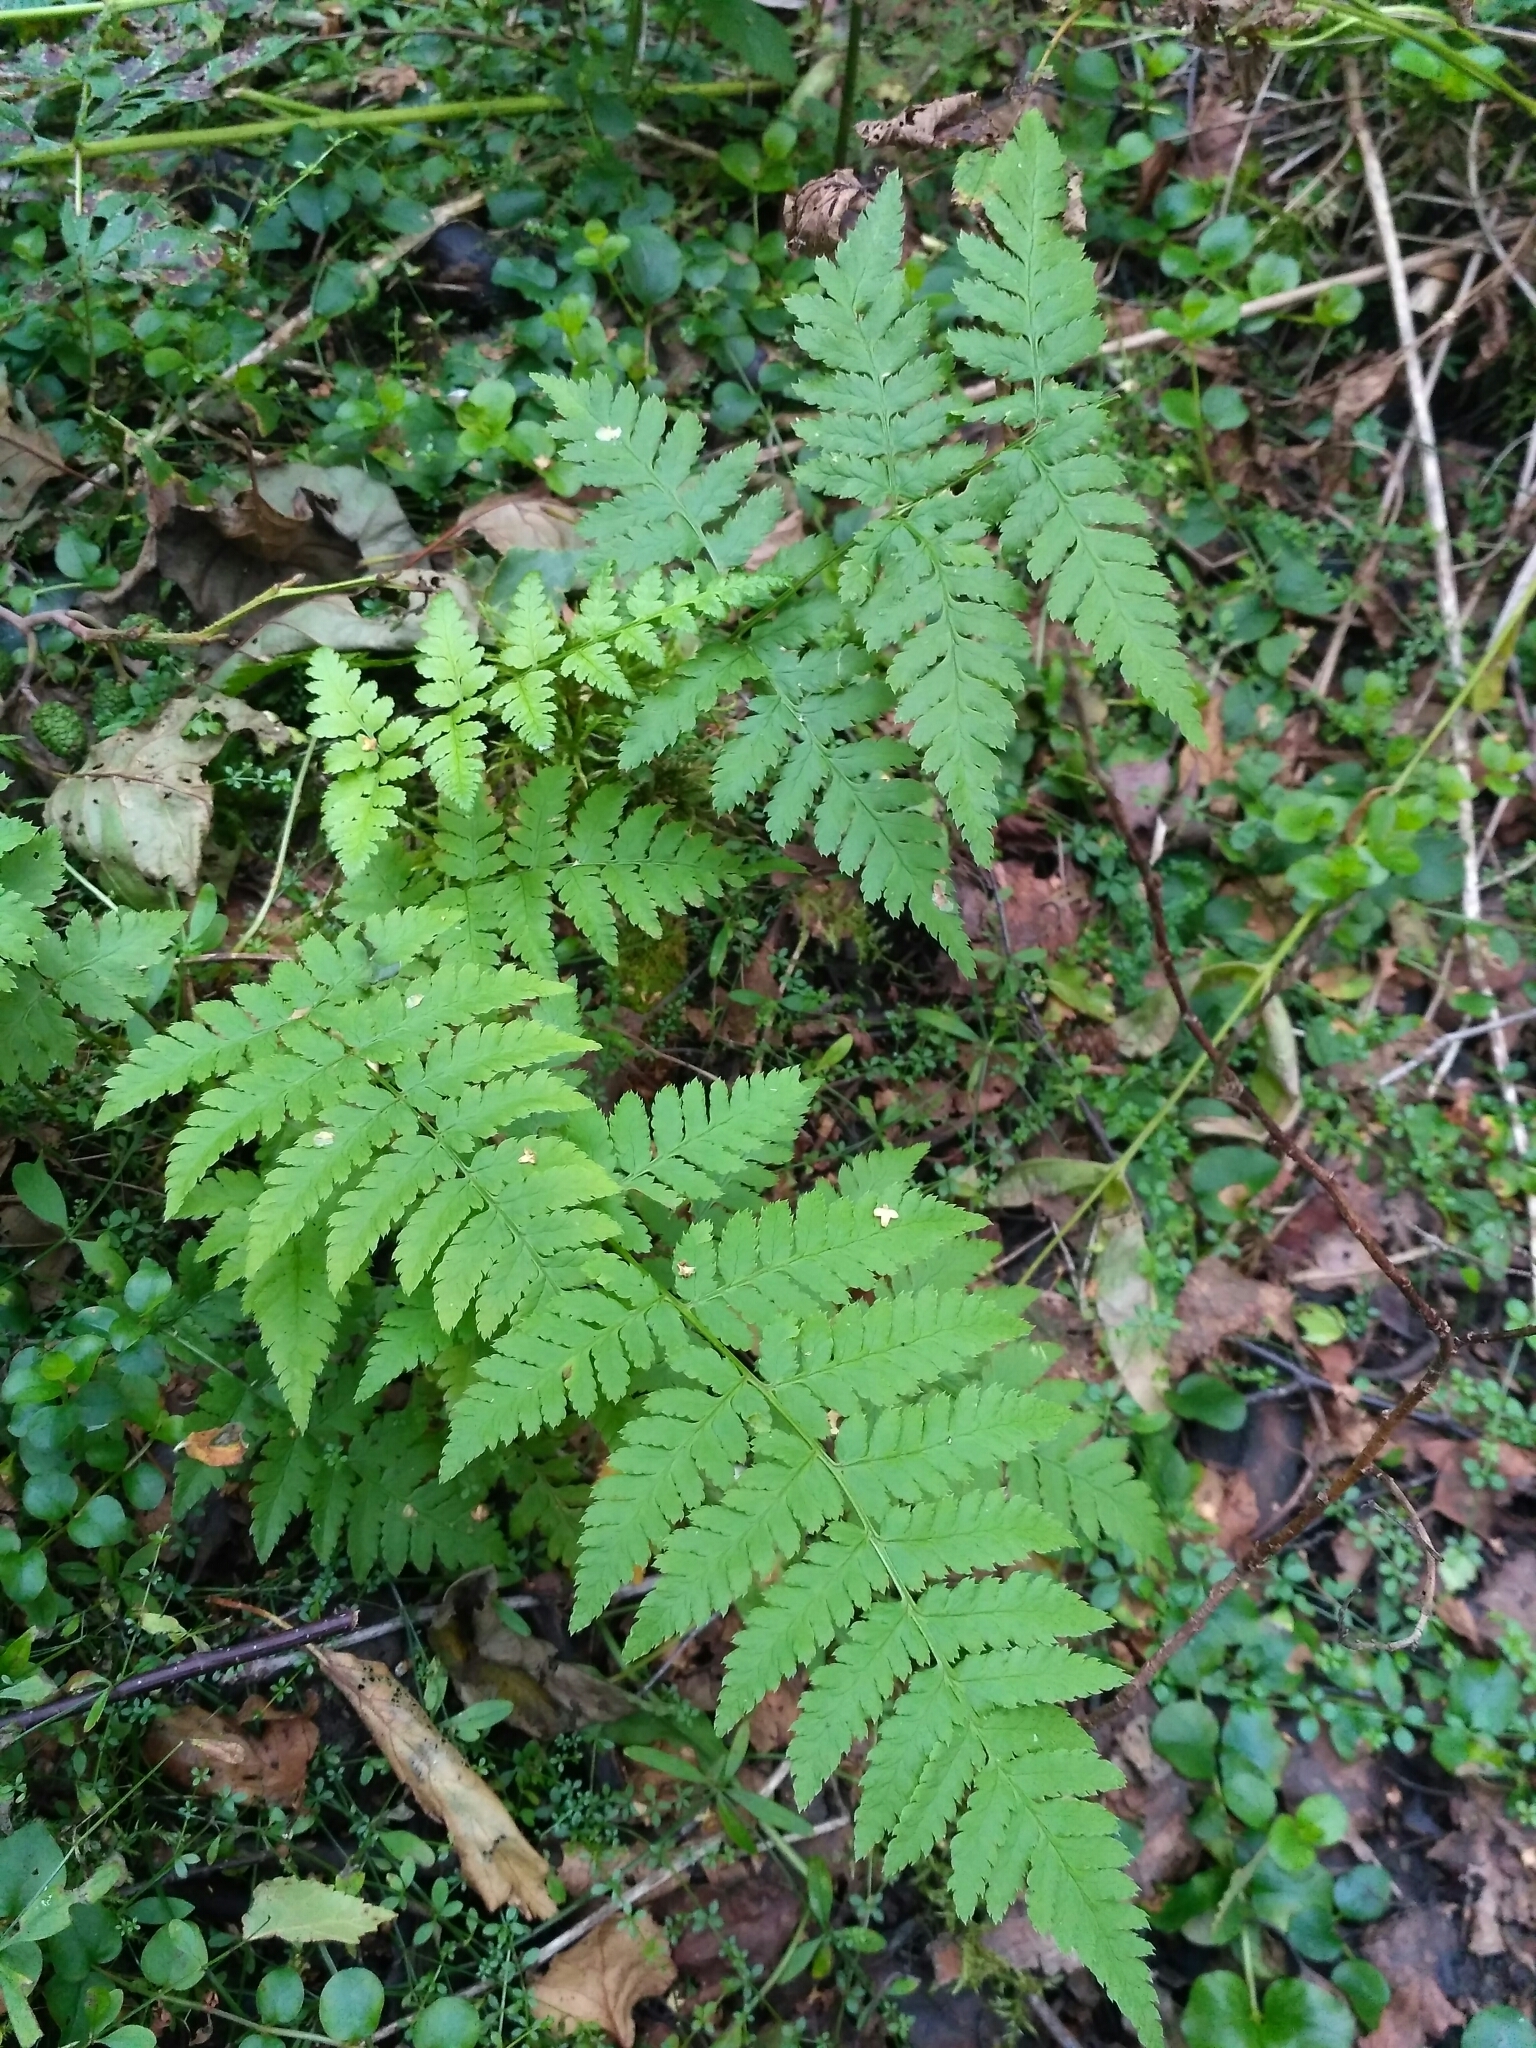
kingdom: Plantae
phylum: Tracheophyta
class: Polypodiopsida
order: Polypodiales
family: Dryopteridaceae
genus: Dryopteris
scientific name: Dryopteris carthusiana
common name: Narrow buckler-fern
